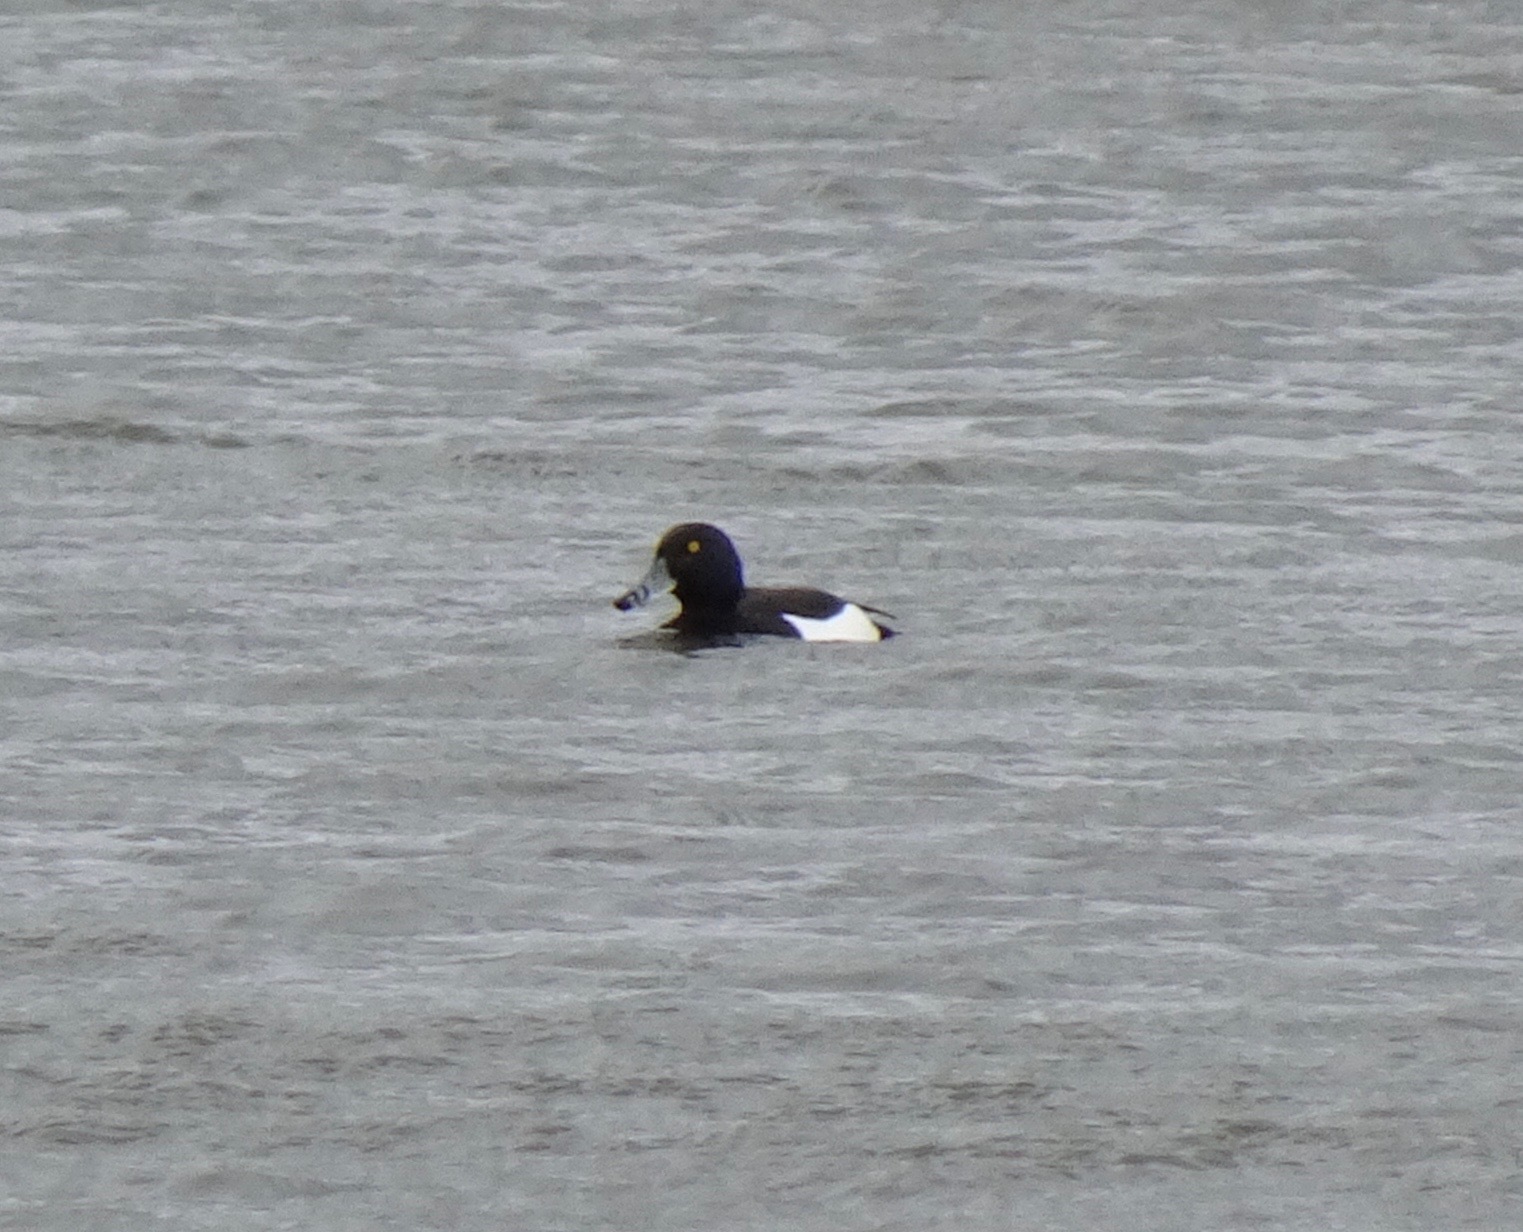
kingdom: Animalia
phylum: Chordata
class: Aves
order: Anseriformes
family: Anatidae
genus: Aythya
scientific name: Aythya fuligula
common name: Tufted duck
